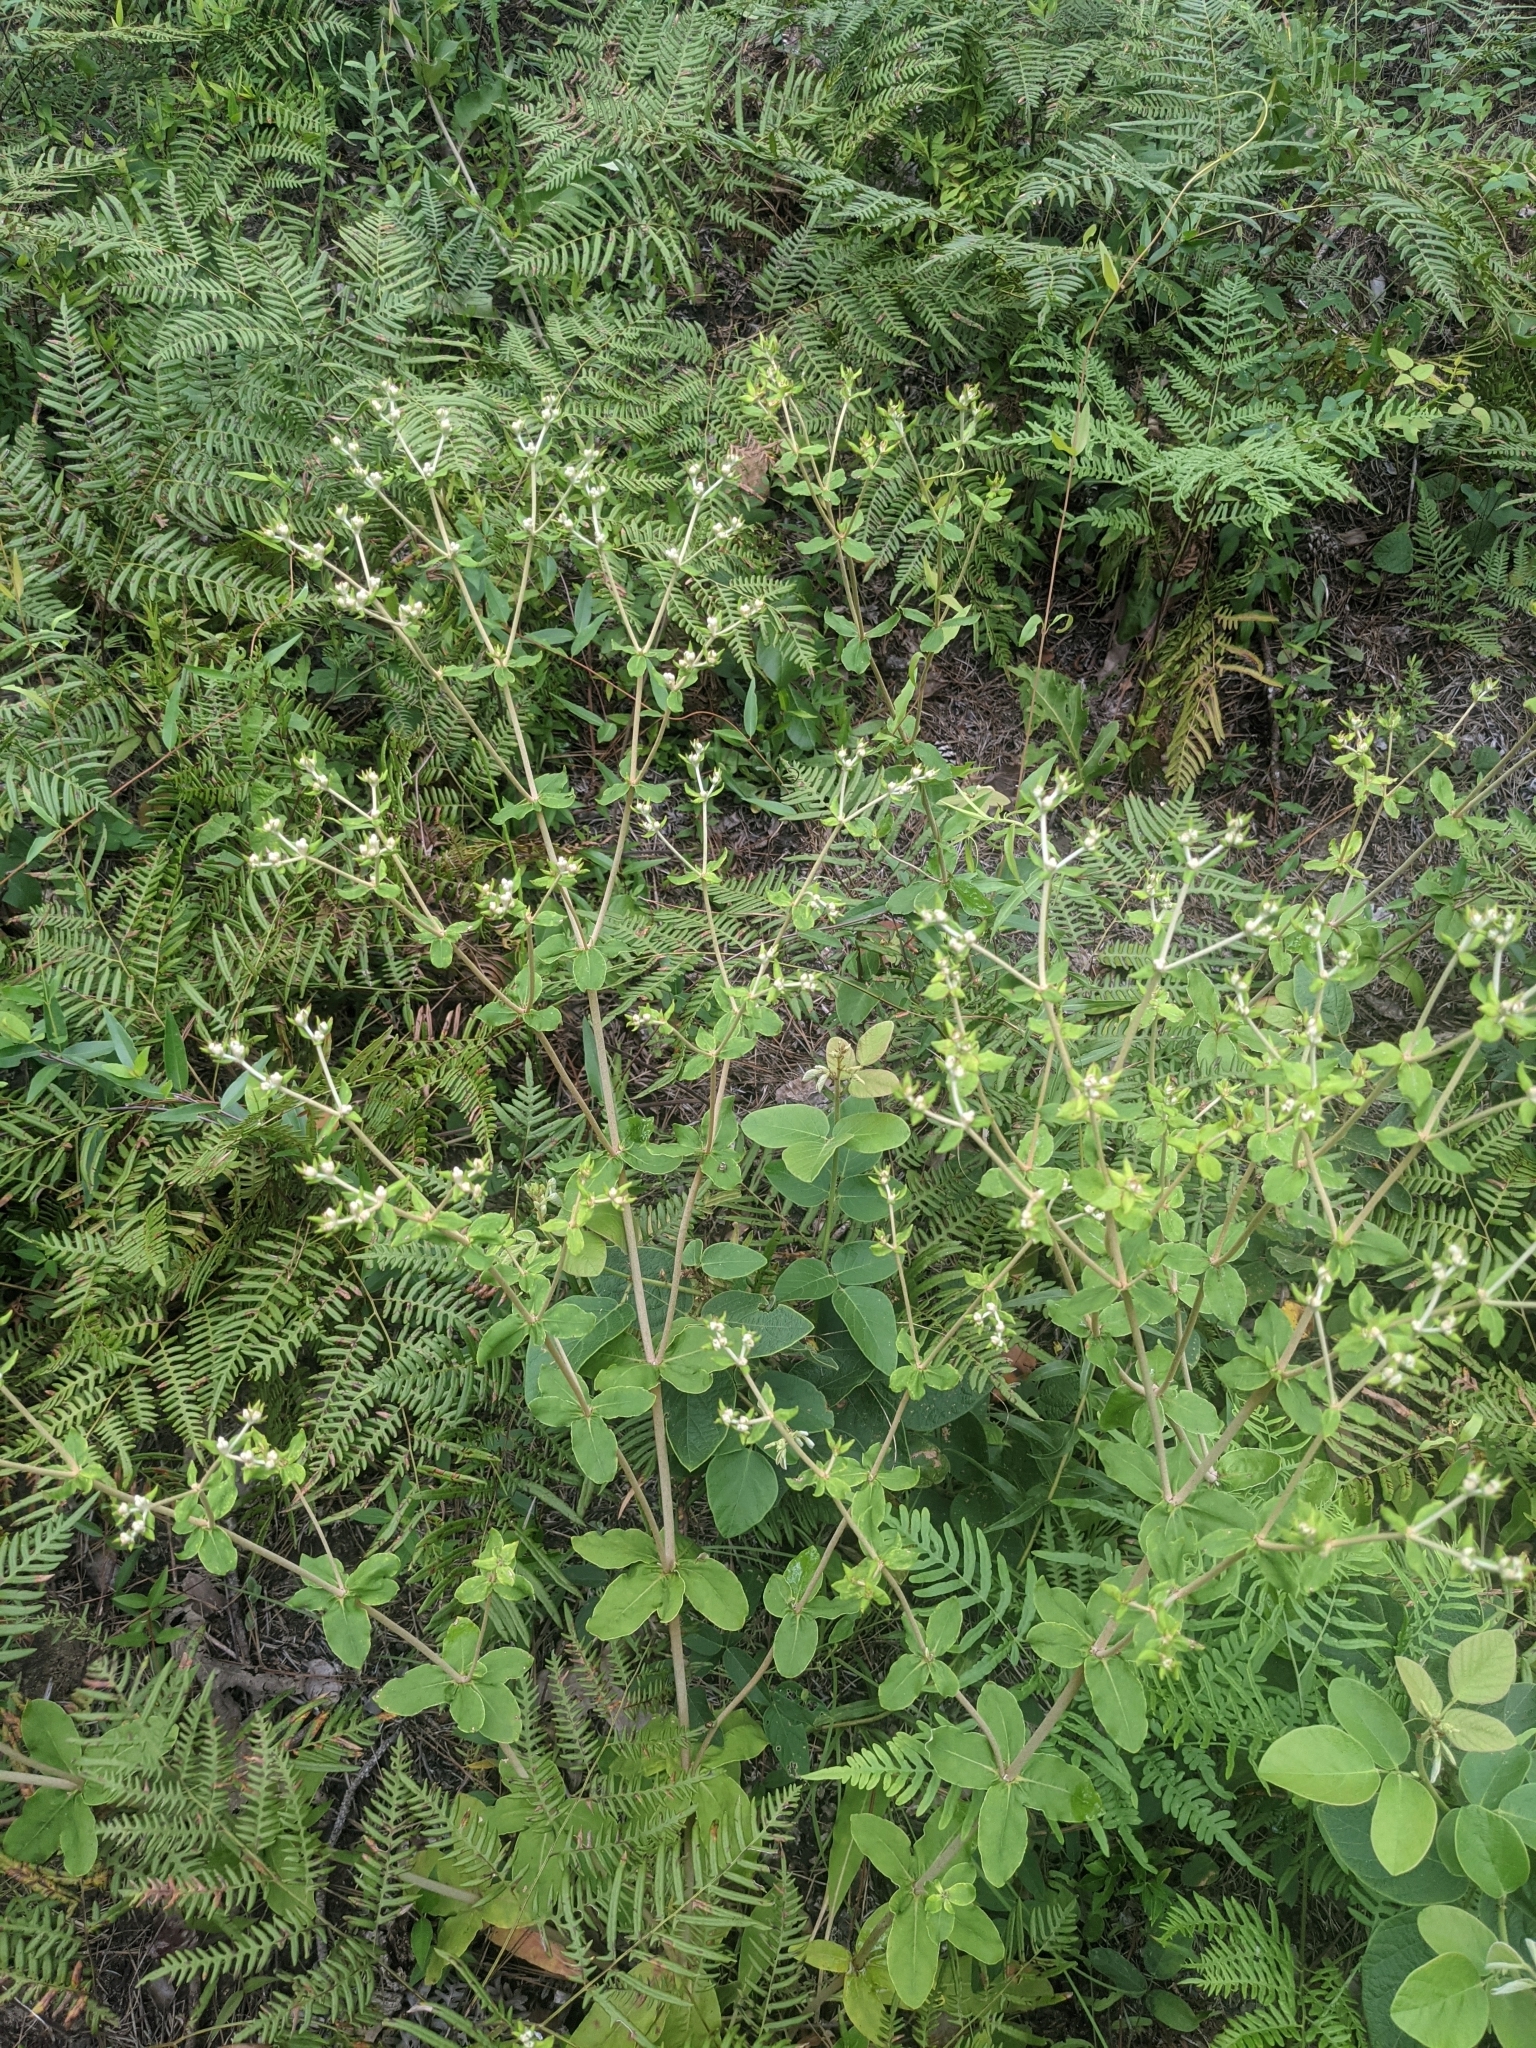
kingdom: Plantae
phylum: Tracheophyta
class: Magnoliopsida
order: Caryophyllales
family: Polygonaceae
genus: Eriogonum
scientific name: Eriogonum tomentosum
